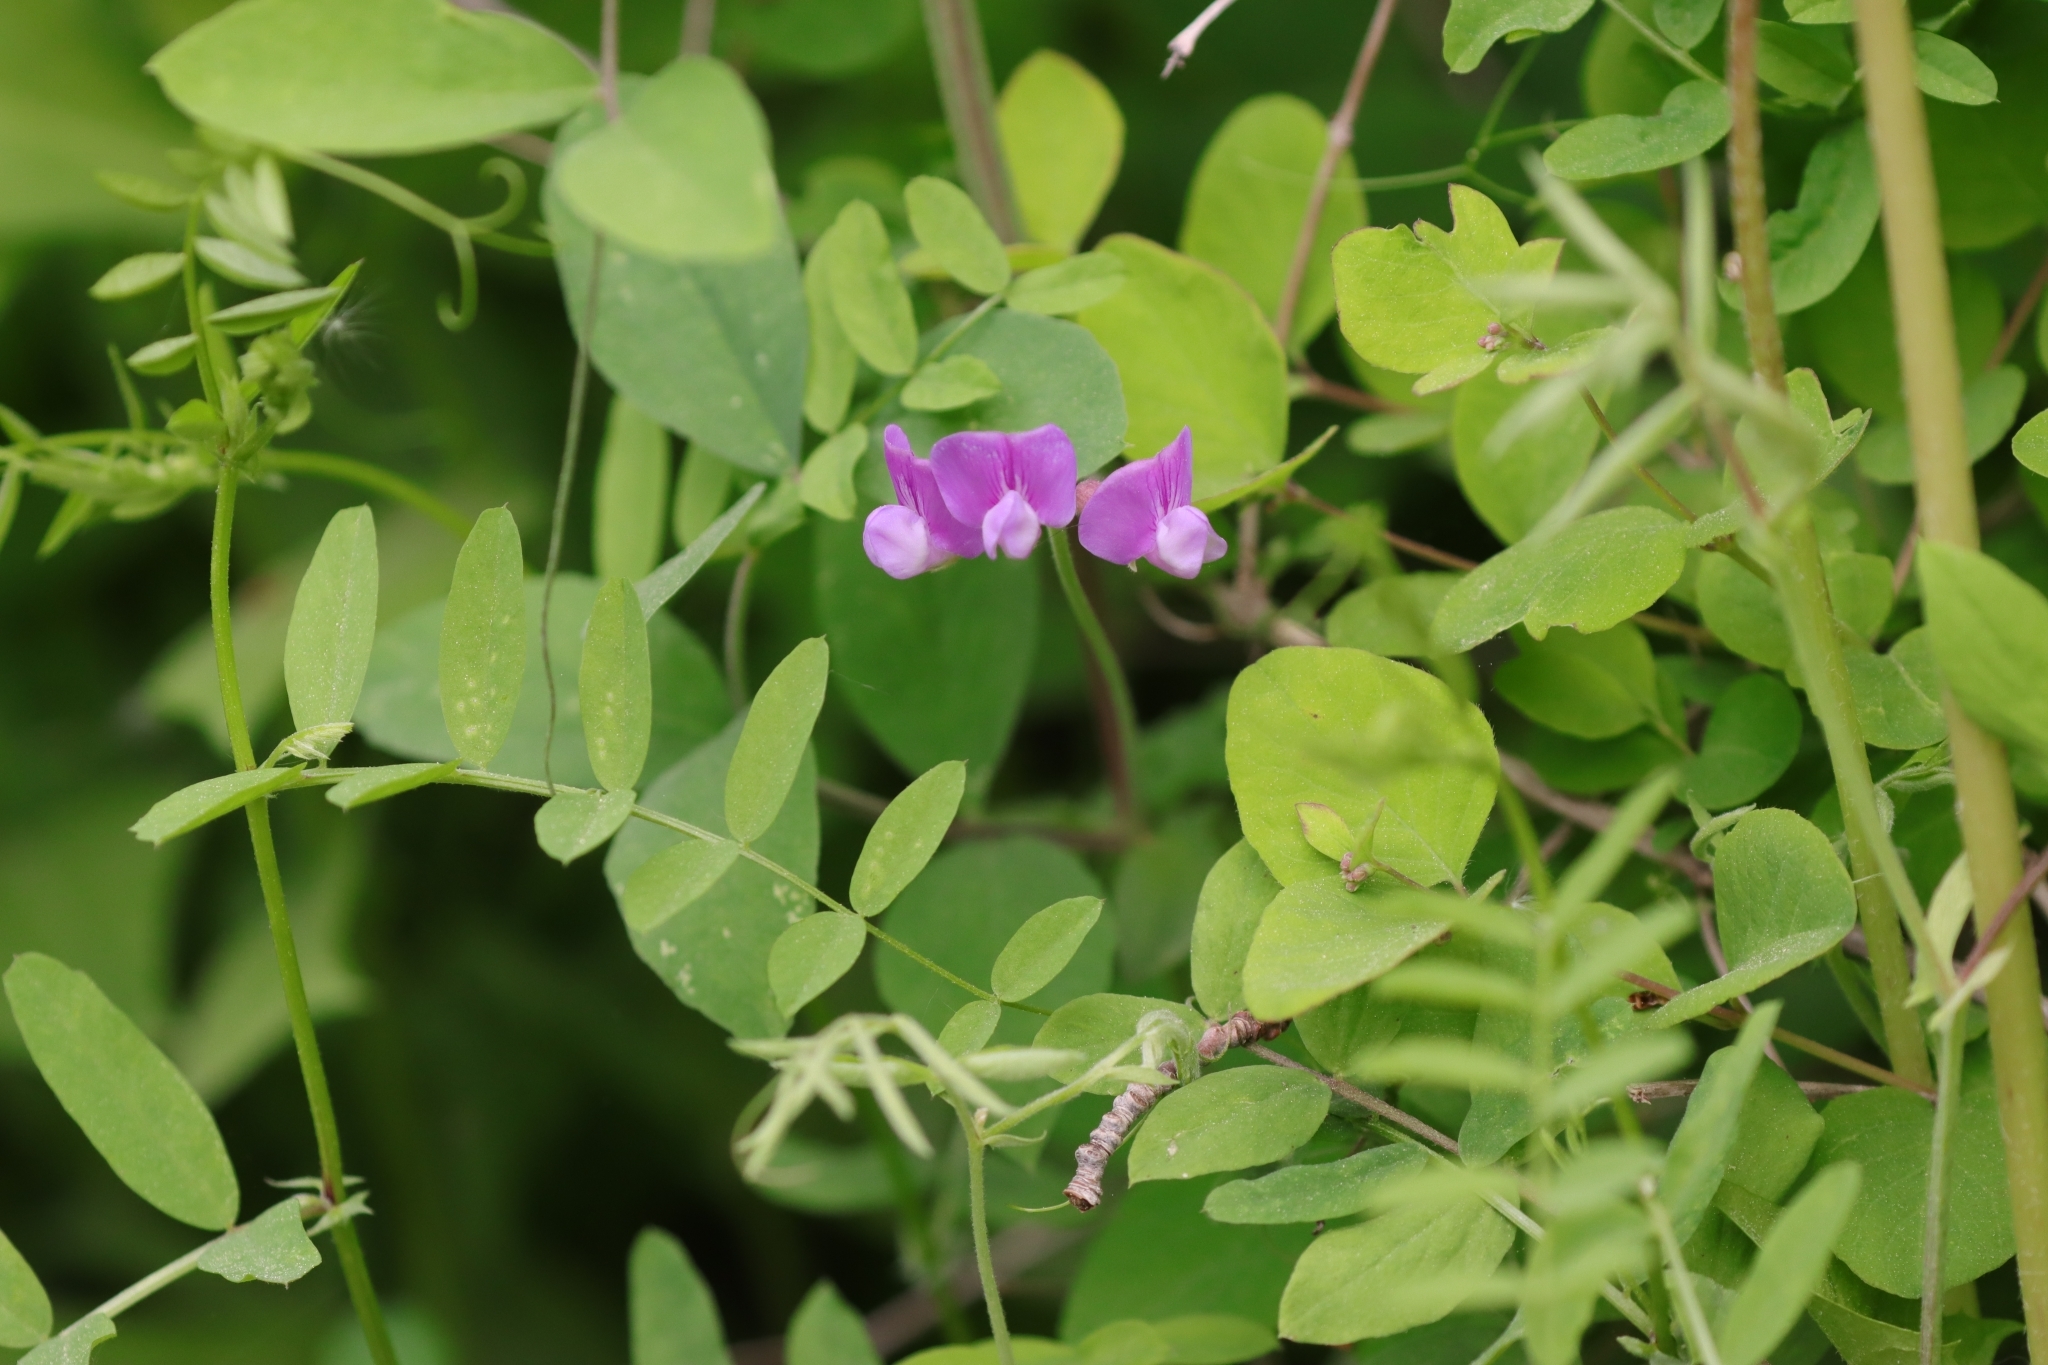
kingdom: Plantae
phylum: Tracheophyta
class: Magnoliopsida
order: Fabales
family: Fabaceae
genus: Vicia
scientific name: Vicia americana
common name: American vetch
